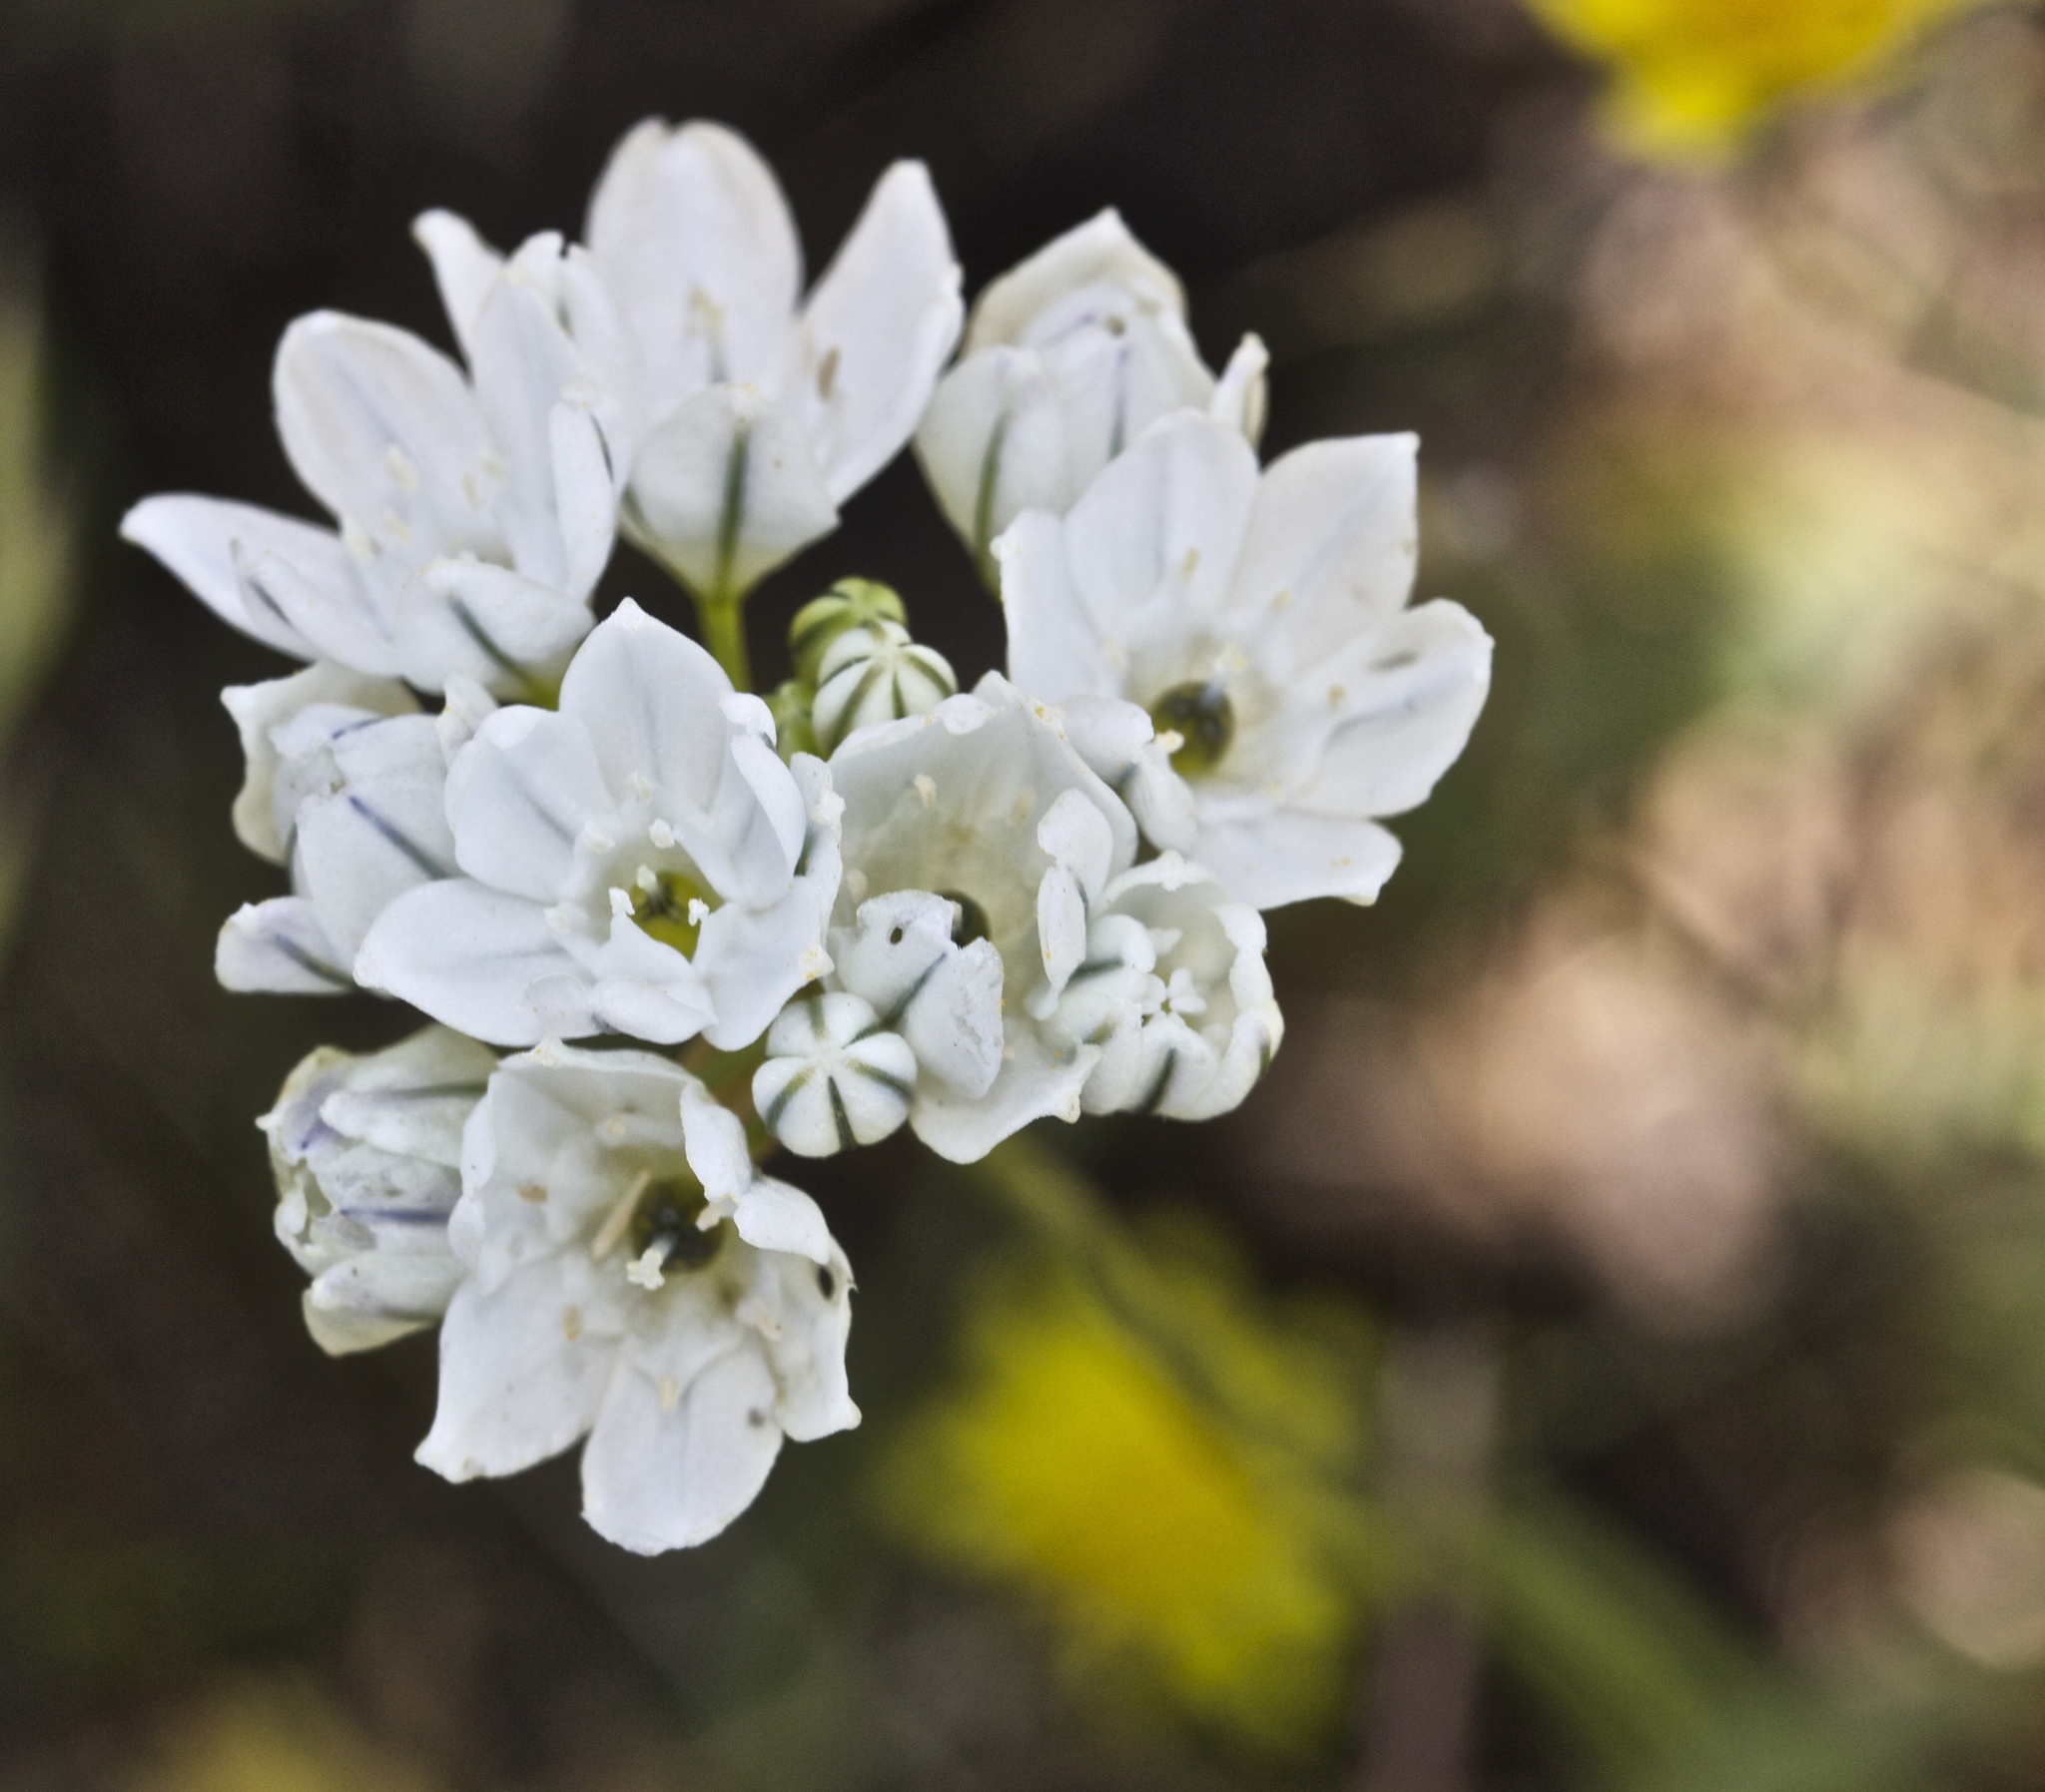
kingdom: Plantae
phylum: Tracheophyta
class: Liliopsida
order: Asparagales
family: Asparagaceae
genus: Triteleia
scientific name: Triteleia hyacinthina
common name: White brodiaea
